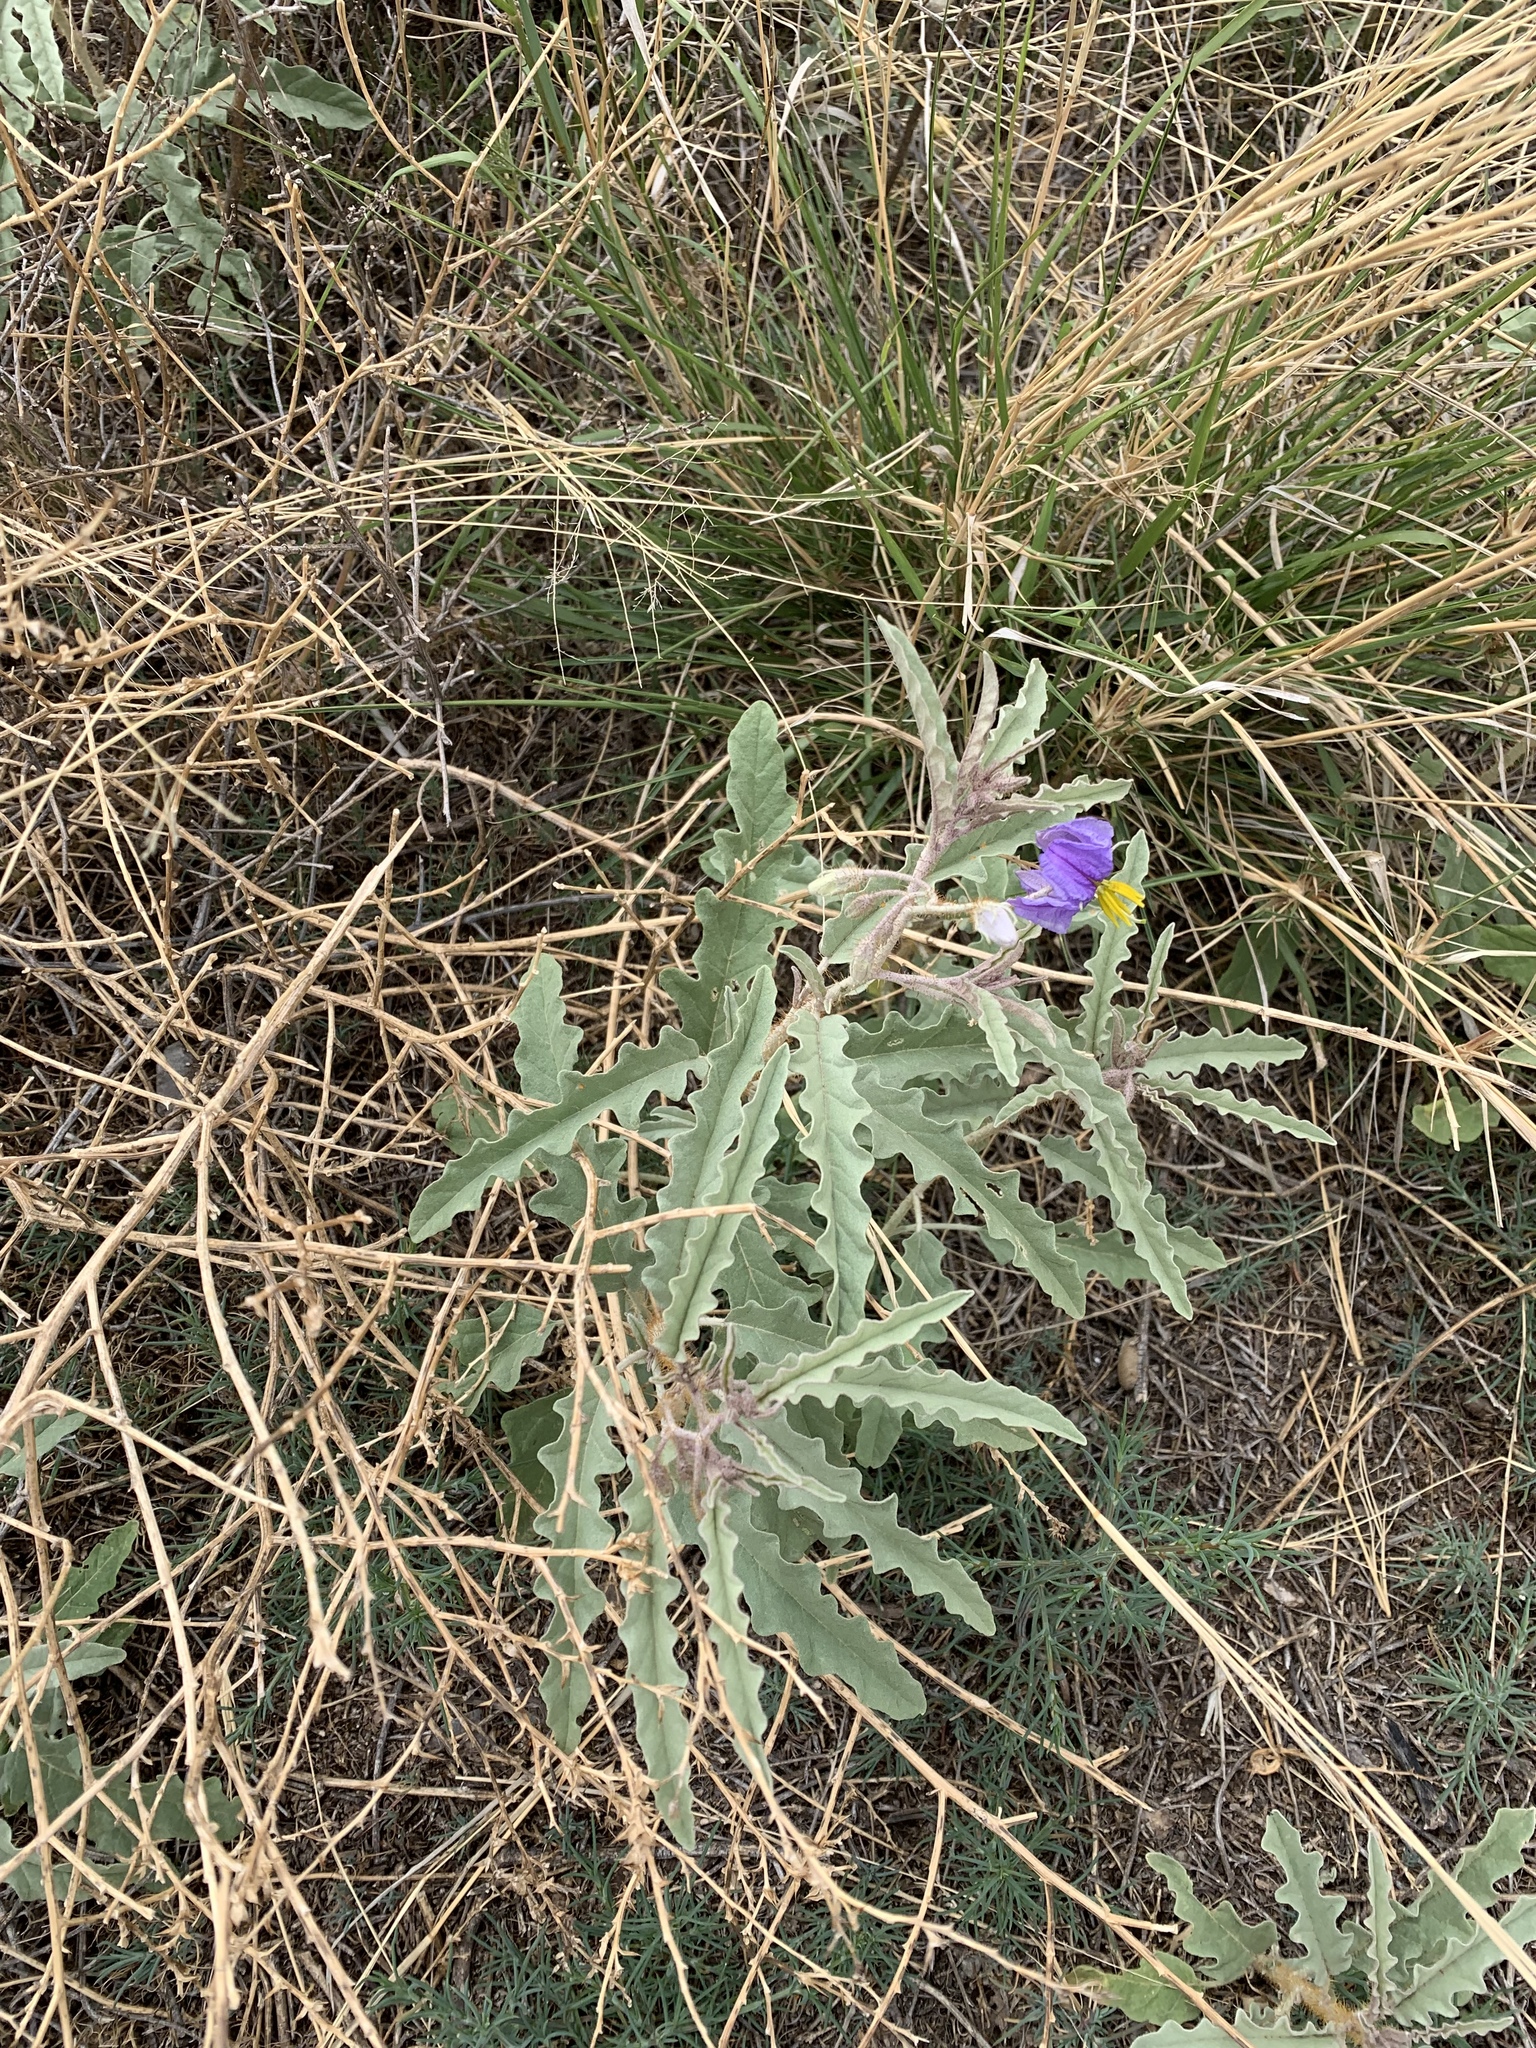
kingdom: Plantae
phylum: Tracheophyta
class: Magnoliopsida
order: Solanales
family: Solanaceae
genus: Solanum
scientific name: Solanum elaeagnifolium
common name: Silverleaf nightshade
